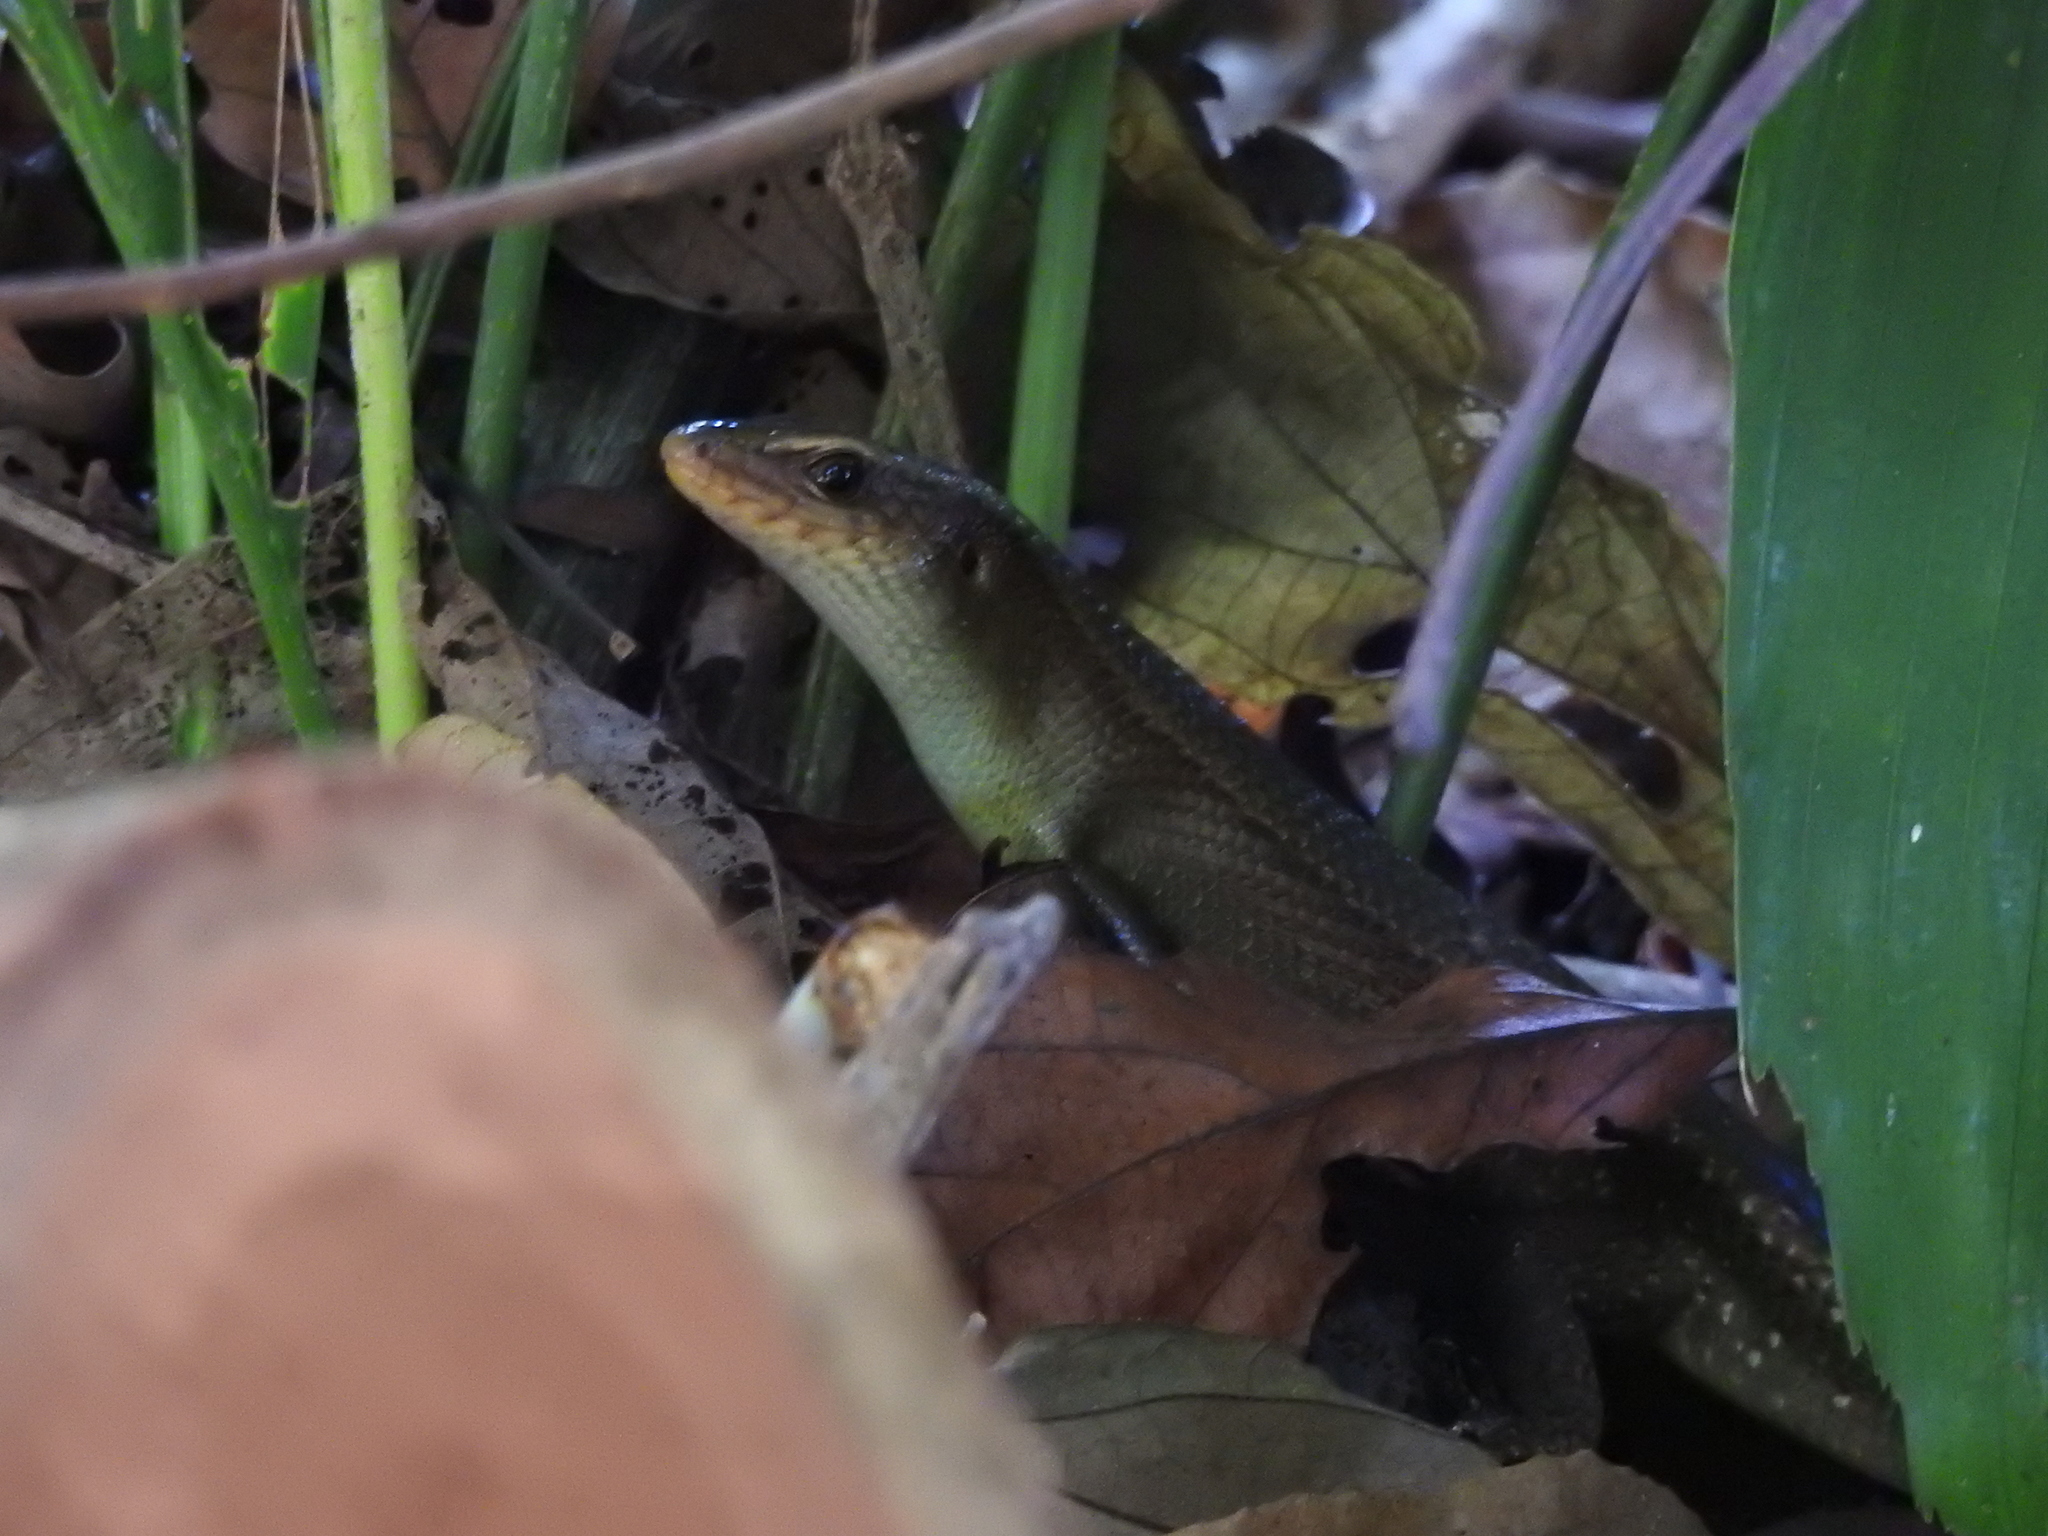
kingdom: Animalia
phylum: Chordata
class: Squamata
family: Scincidae
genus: Eutropis
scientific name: Eutropis multifasciata
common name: Common mabuya
